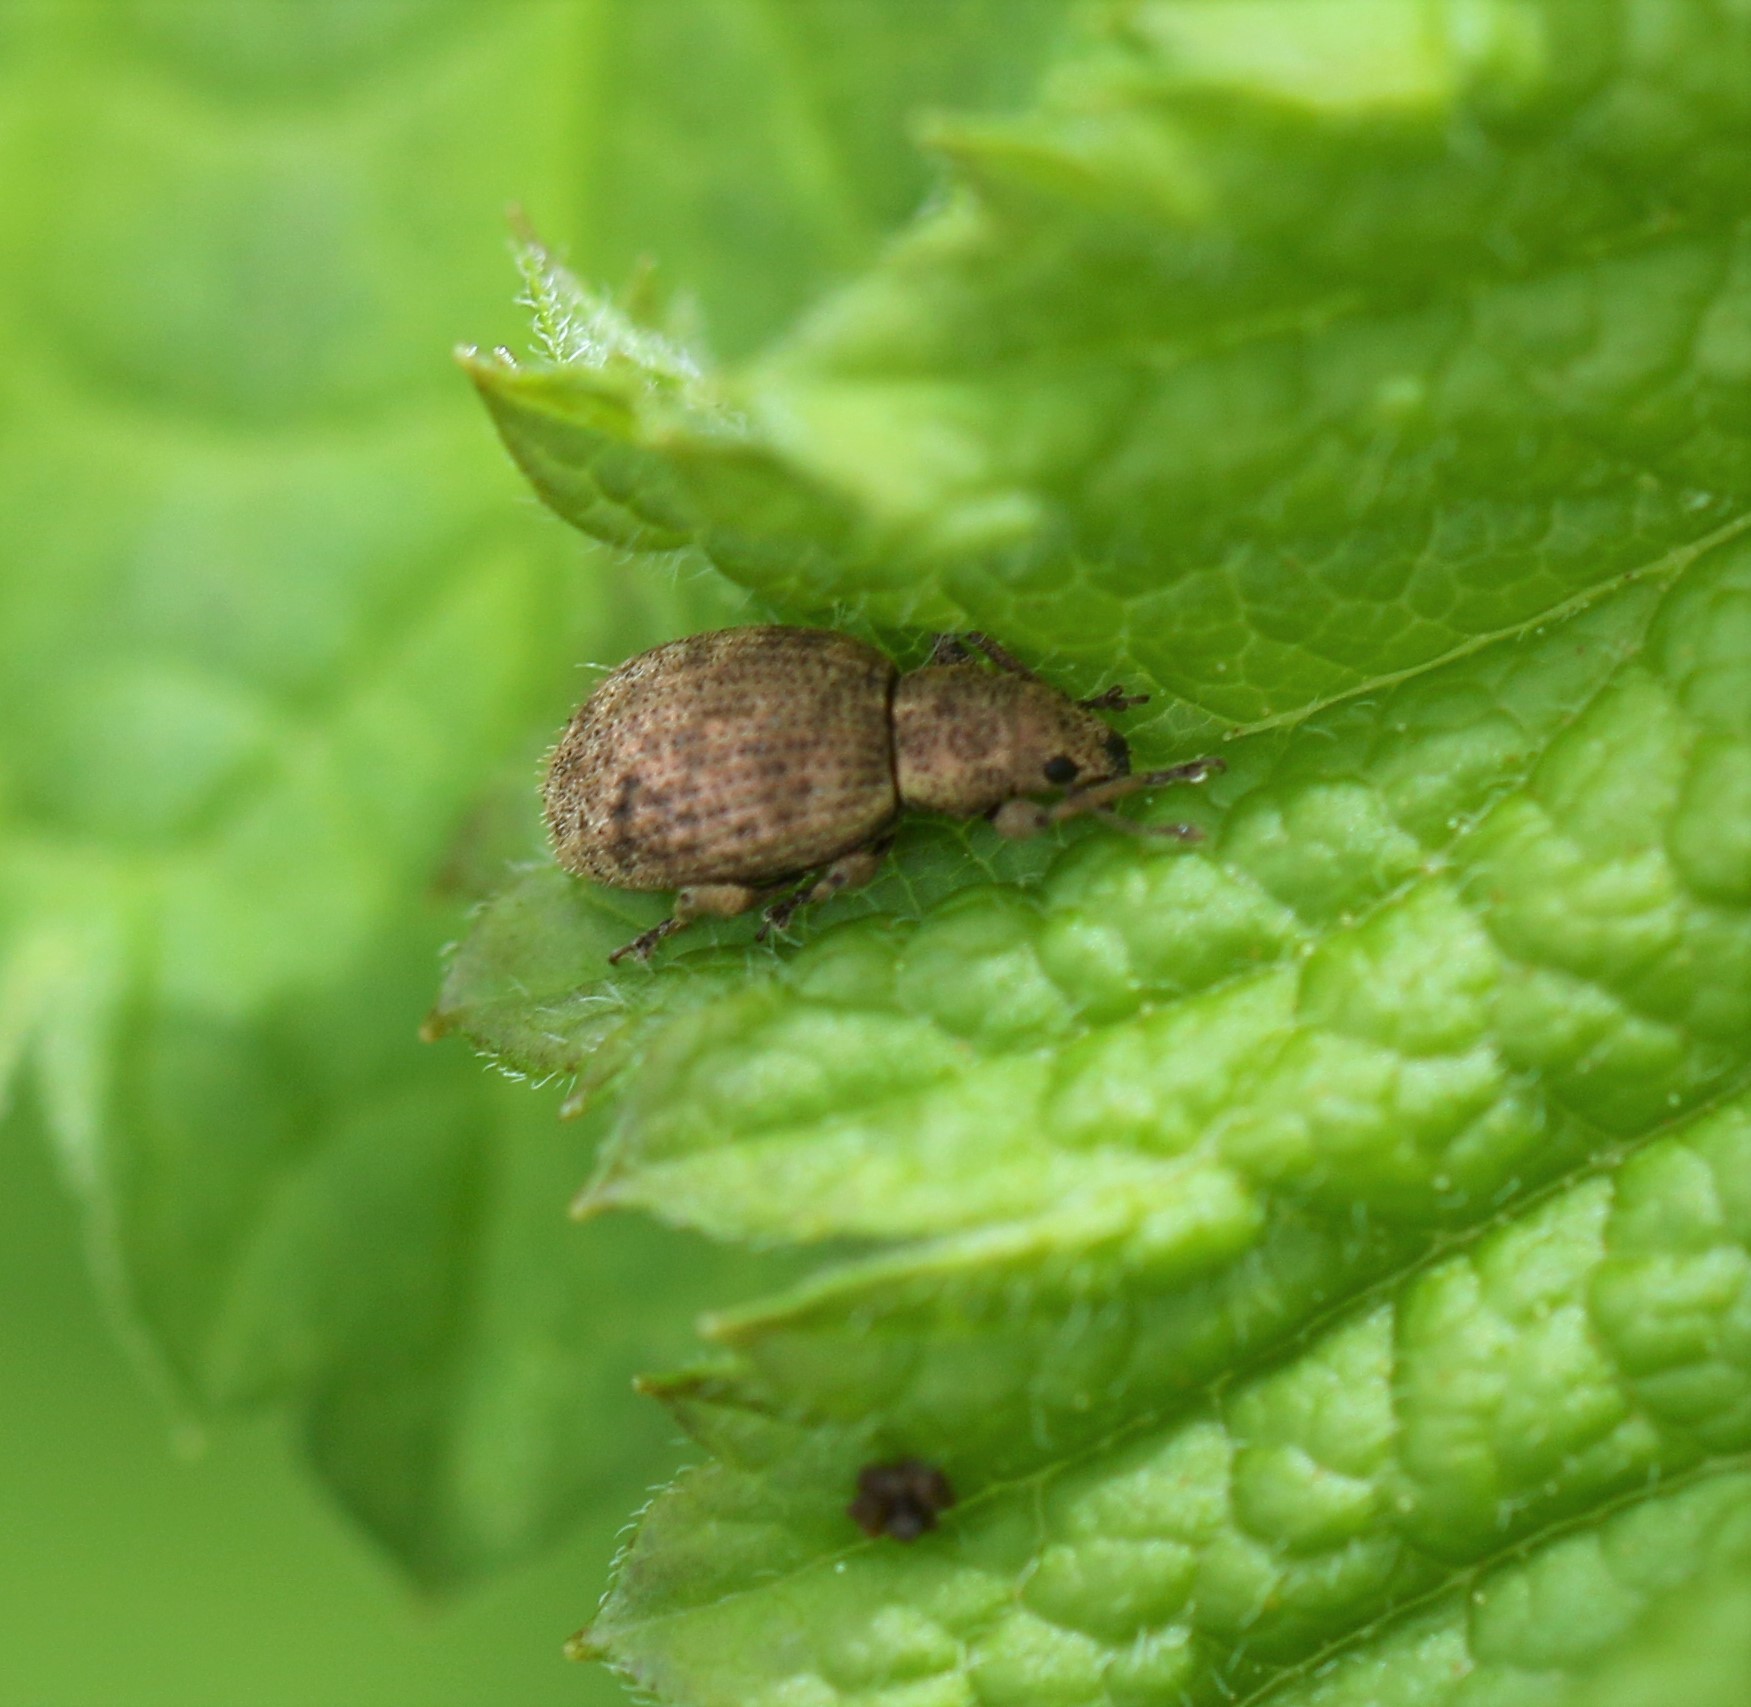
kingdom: Animalia
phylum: Arthropoda
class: Insecta
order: Coleoptera
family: Curculionidae
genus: Sciaphilus
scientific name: Sciaphilus asperatus
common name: Weevil
